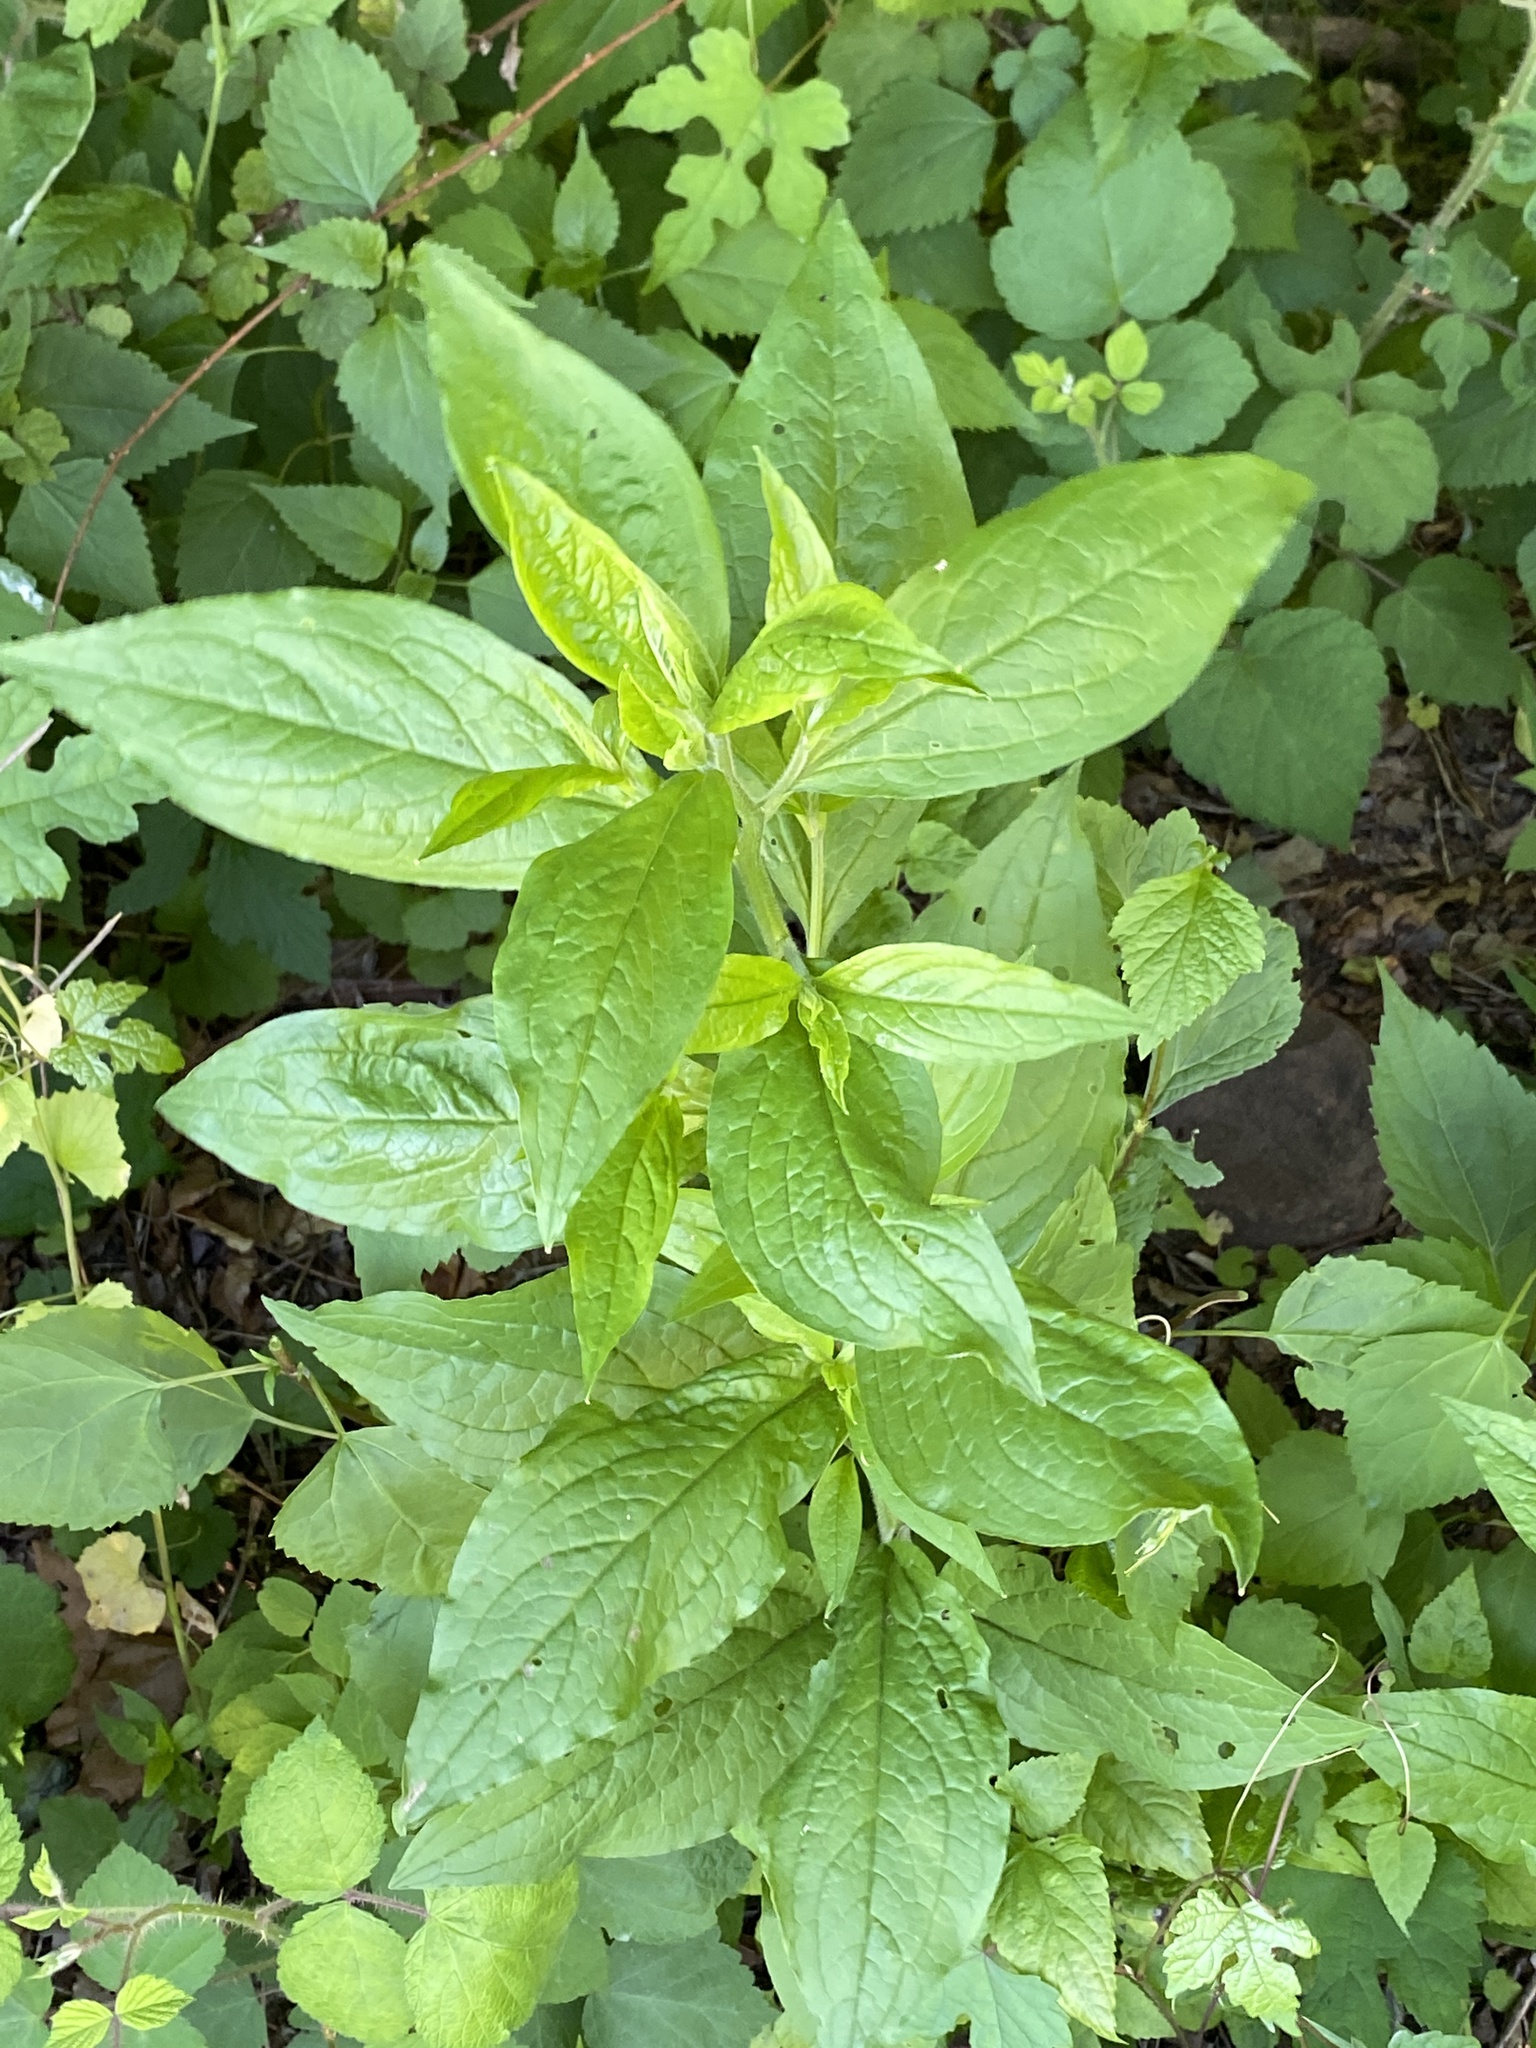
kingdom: Plantae
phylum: Tracheophyta
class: Magnoliopsida
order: Boraginales
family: Boraginaceae
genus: Hackelia
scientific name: Hackelia virginiana
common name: Beggar's-lice
